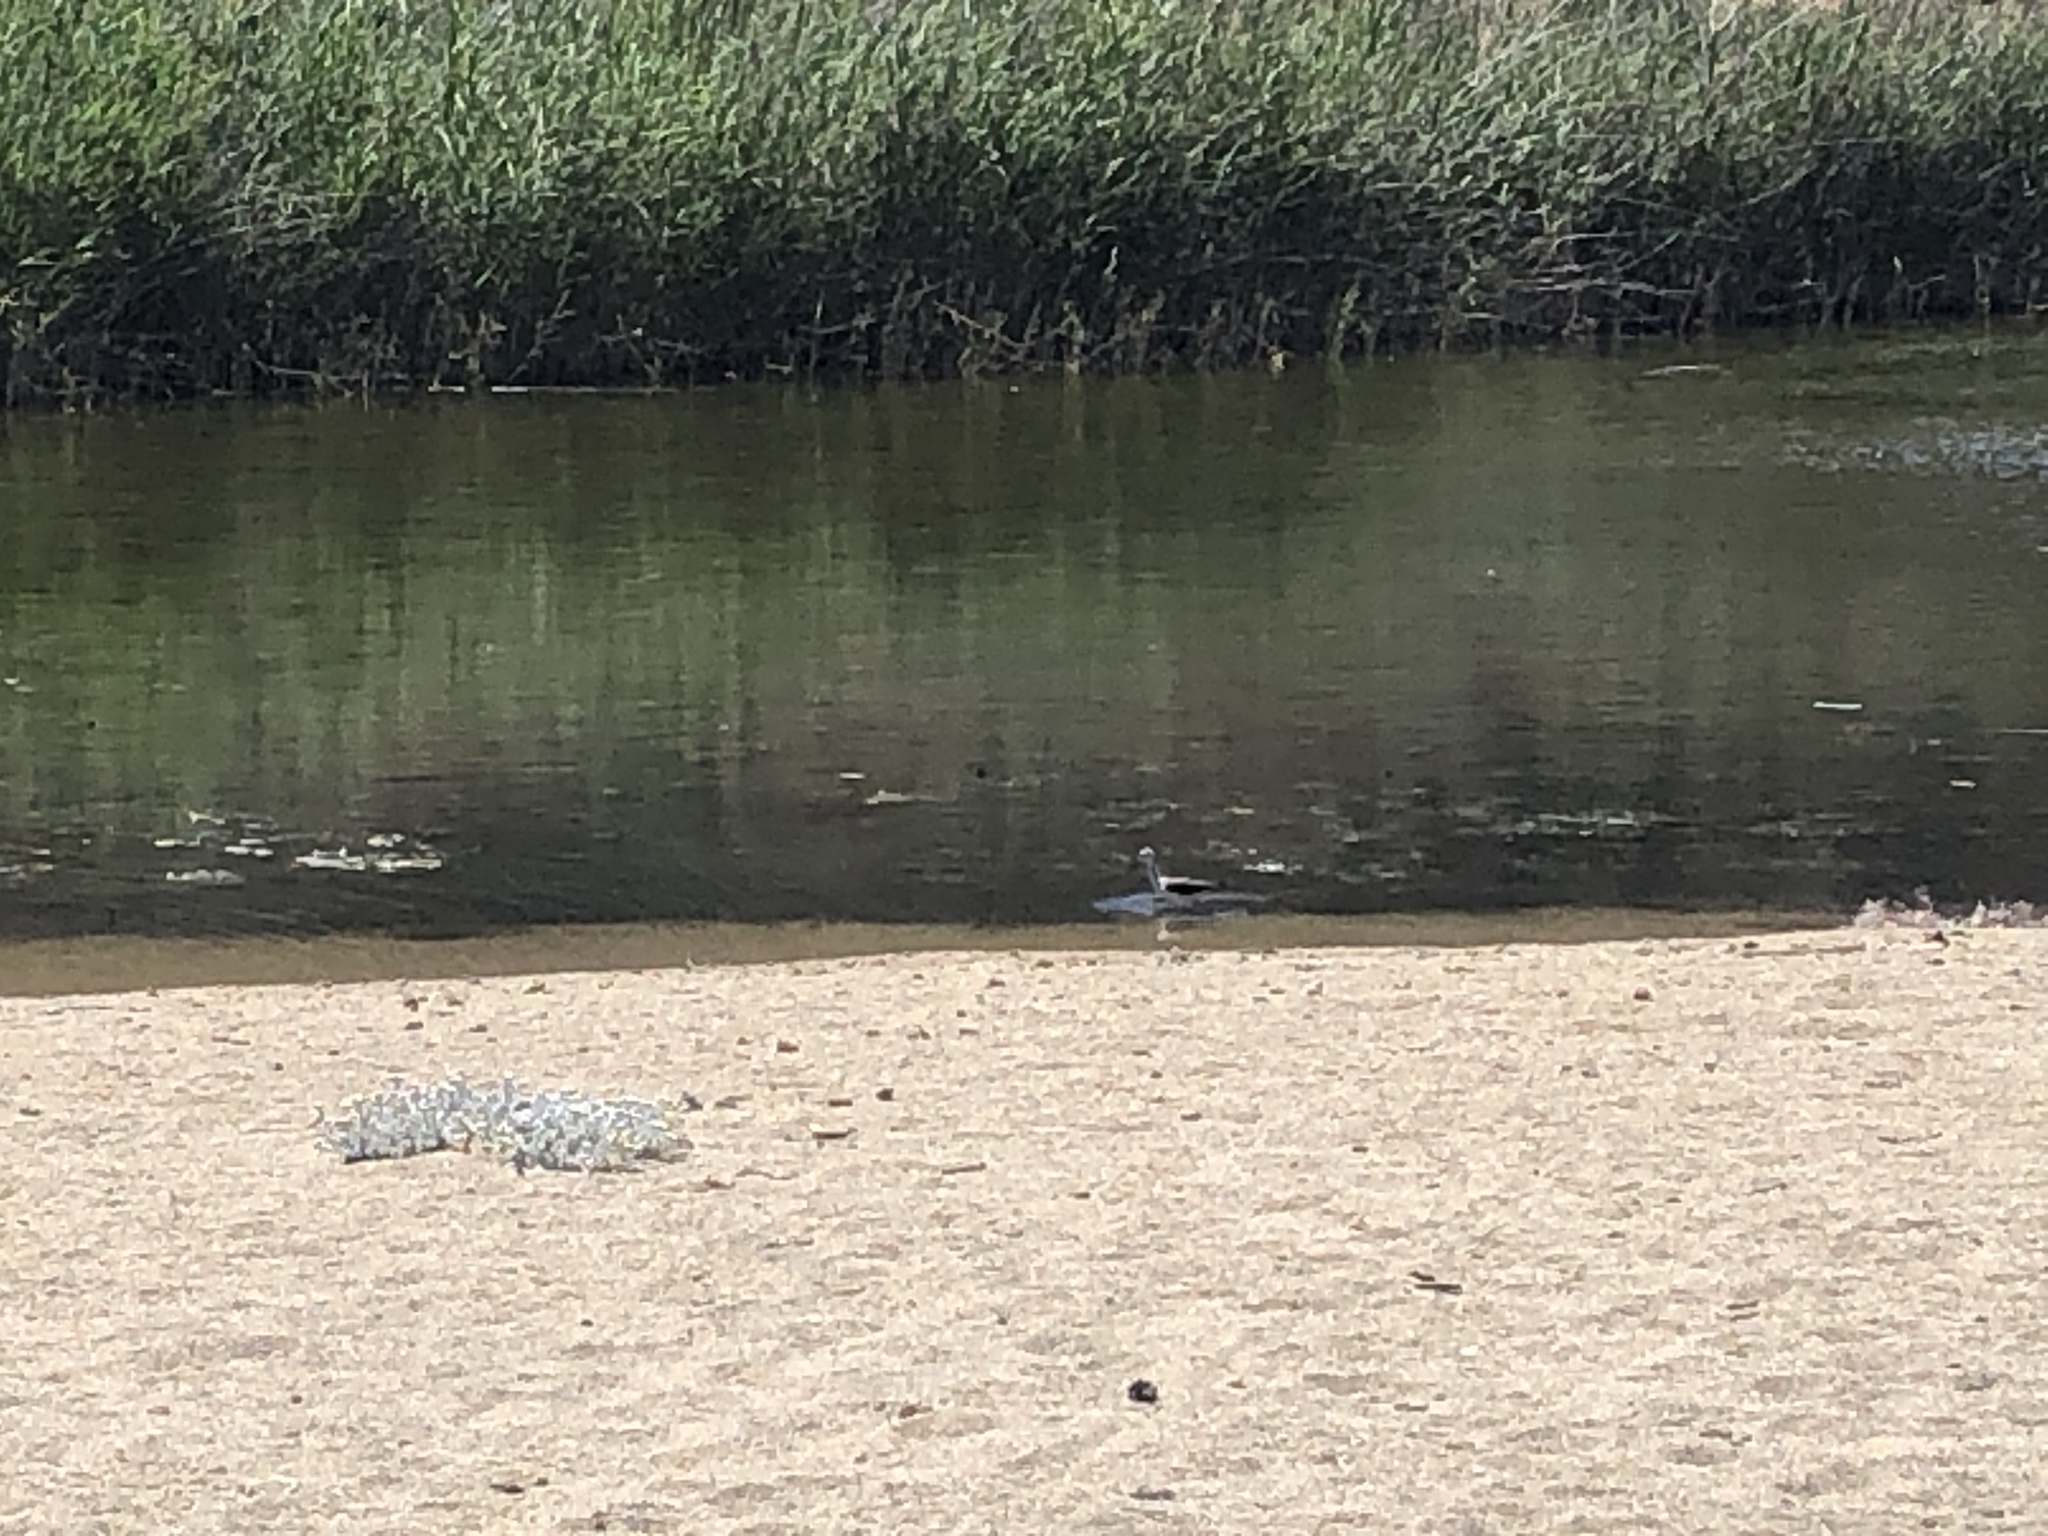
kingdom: Animalia
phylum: Chordata
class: Aves
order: Charadriiformes
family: Recurvirostridae
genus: Himantopus
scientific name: Himantopus himantopus
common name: Black-winged stilt
